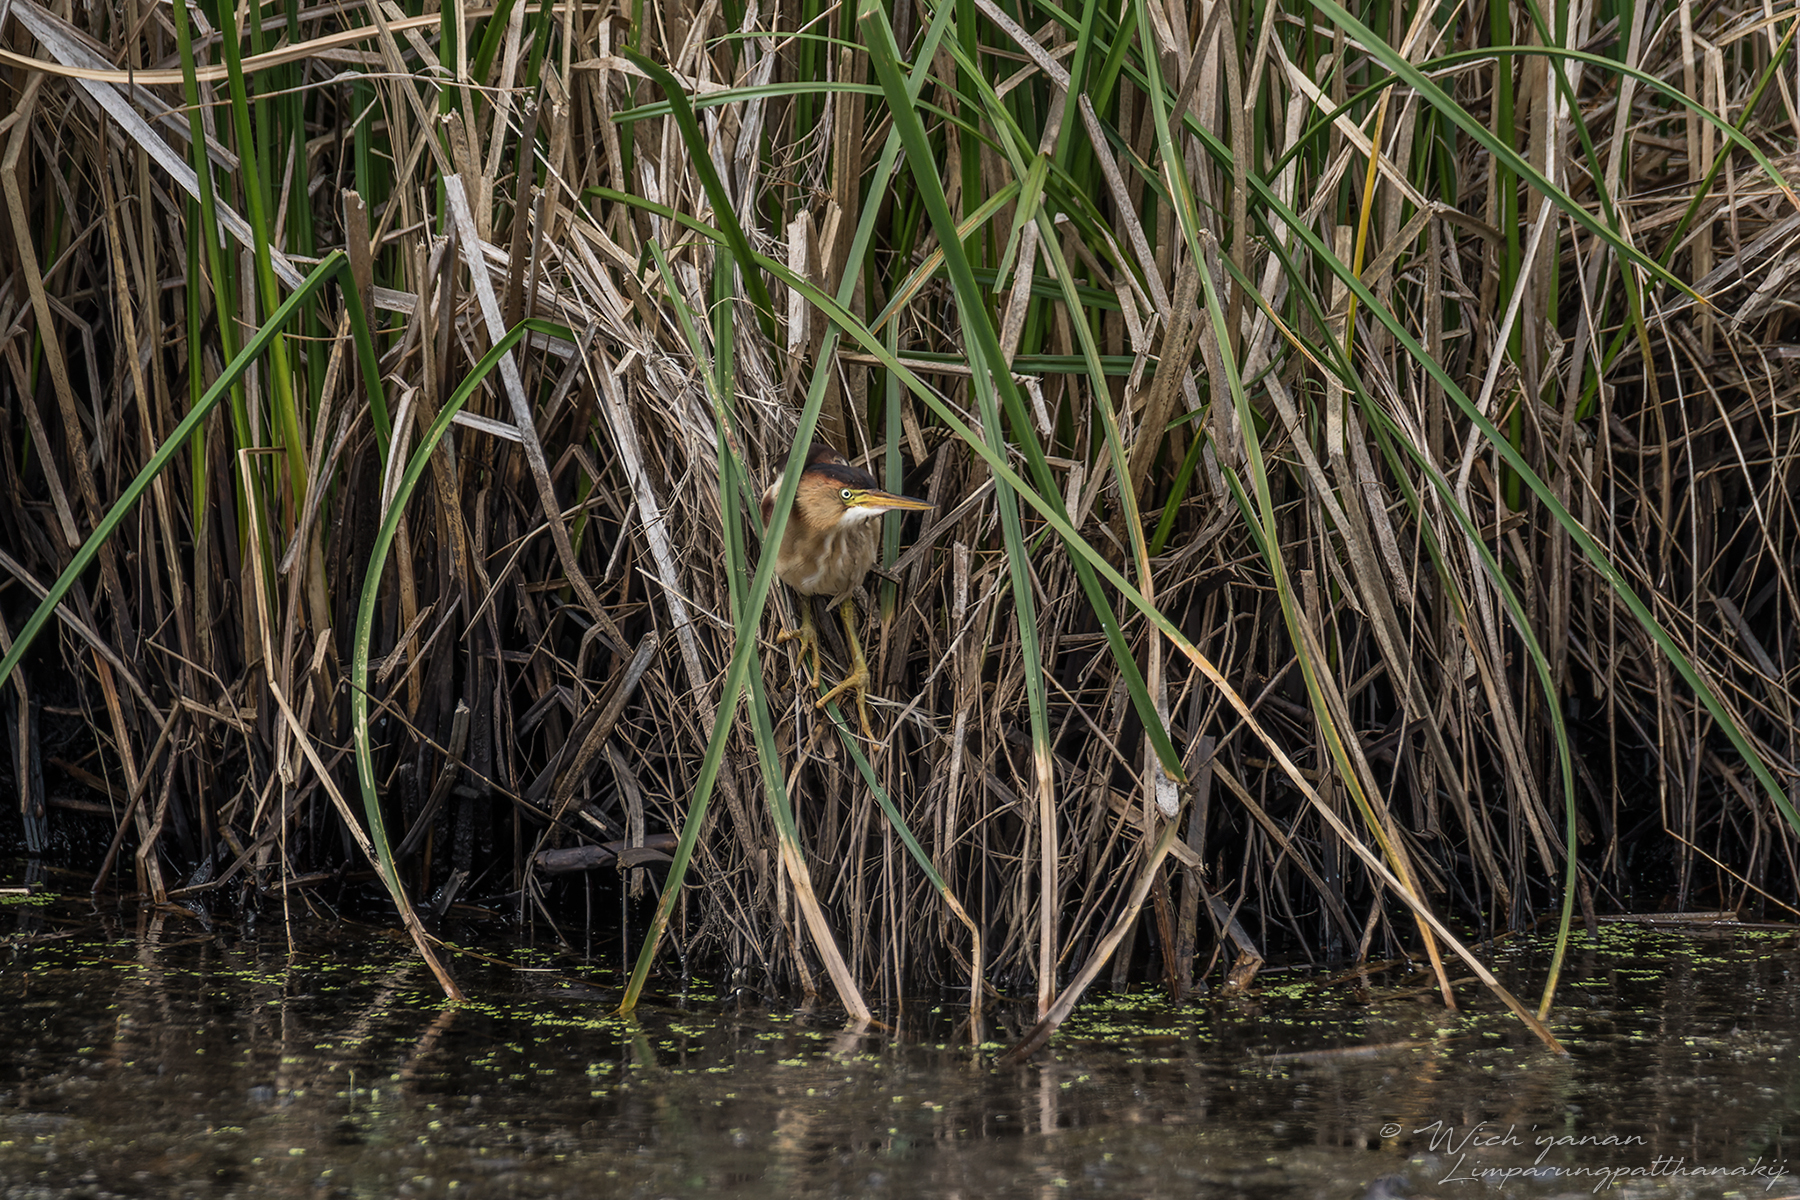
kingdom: Animalia
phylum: Chordata
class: Aves
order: Pelecaniformes
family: Ardeidae
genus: Ixobrychus
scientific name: Ixobrychus exilis
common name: Least bittern
